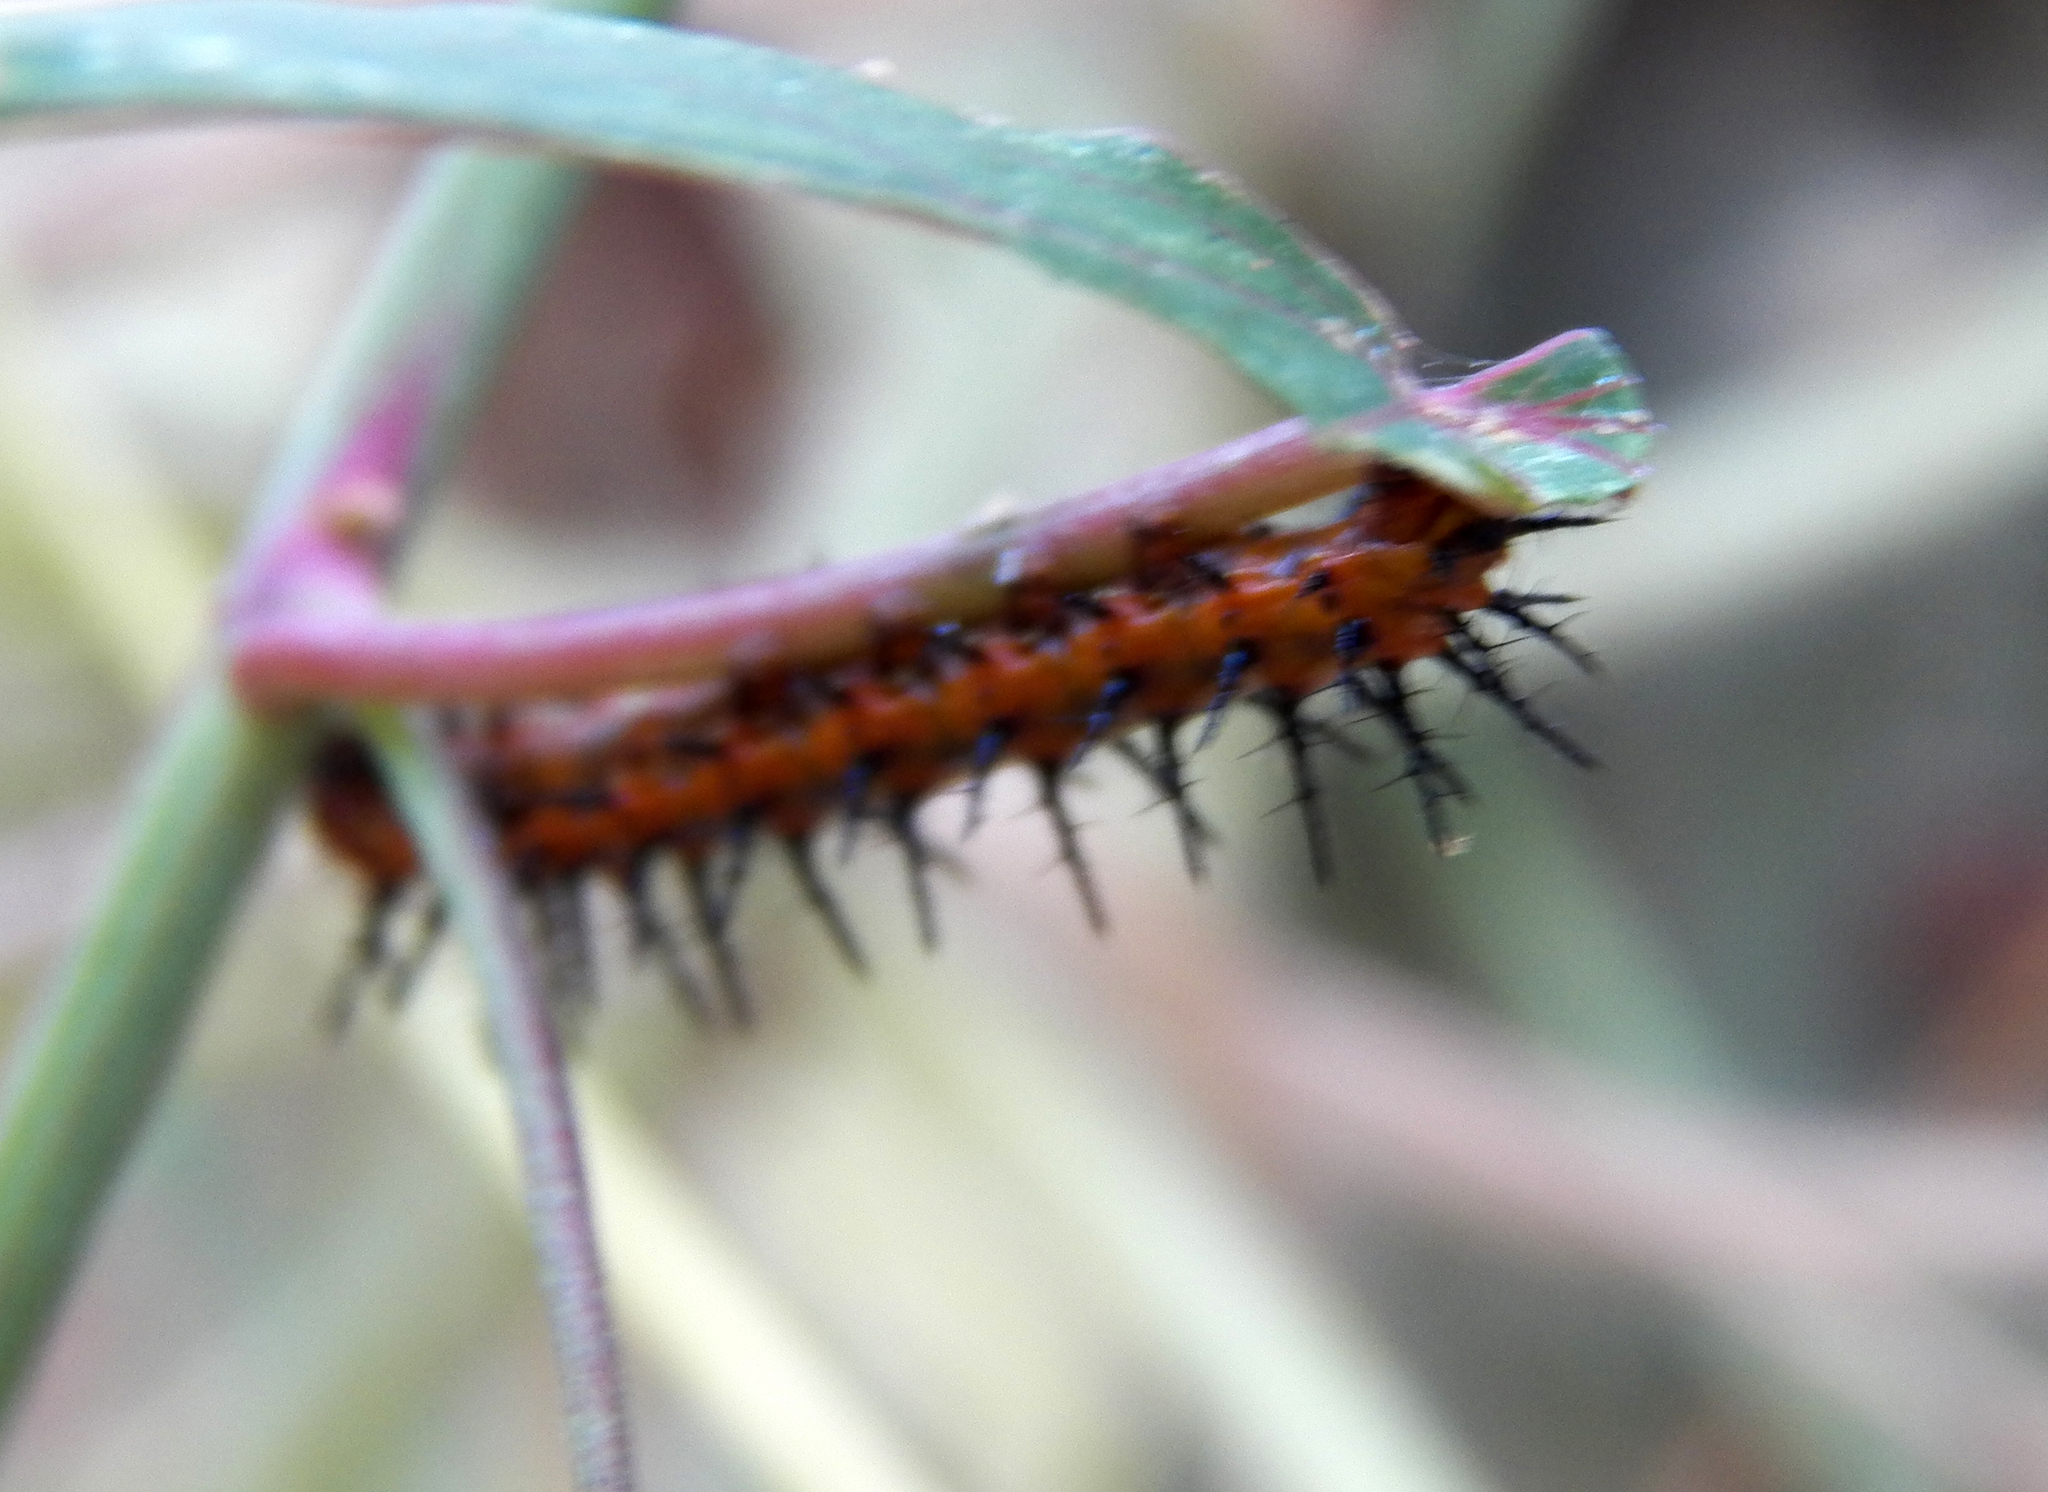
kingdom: Animalia
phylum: Arthropoda
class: Insecta
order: Lepidoptera
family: Nymphalidae
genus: Dione
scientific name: Dione vanillae
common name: Gulf fritillary
